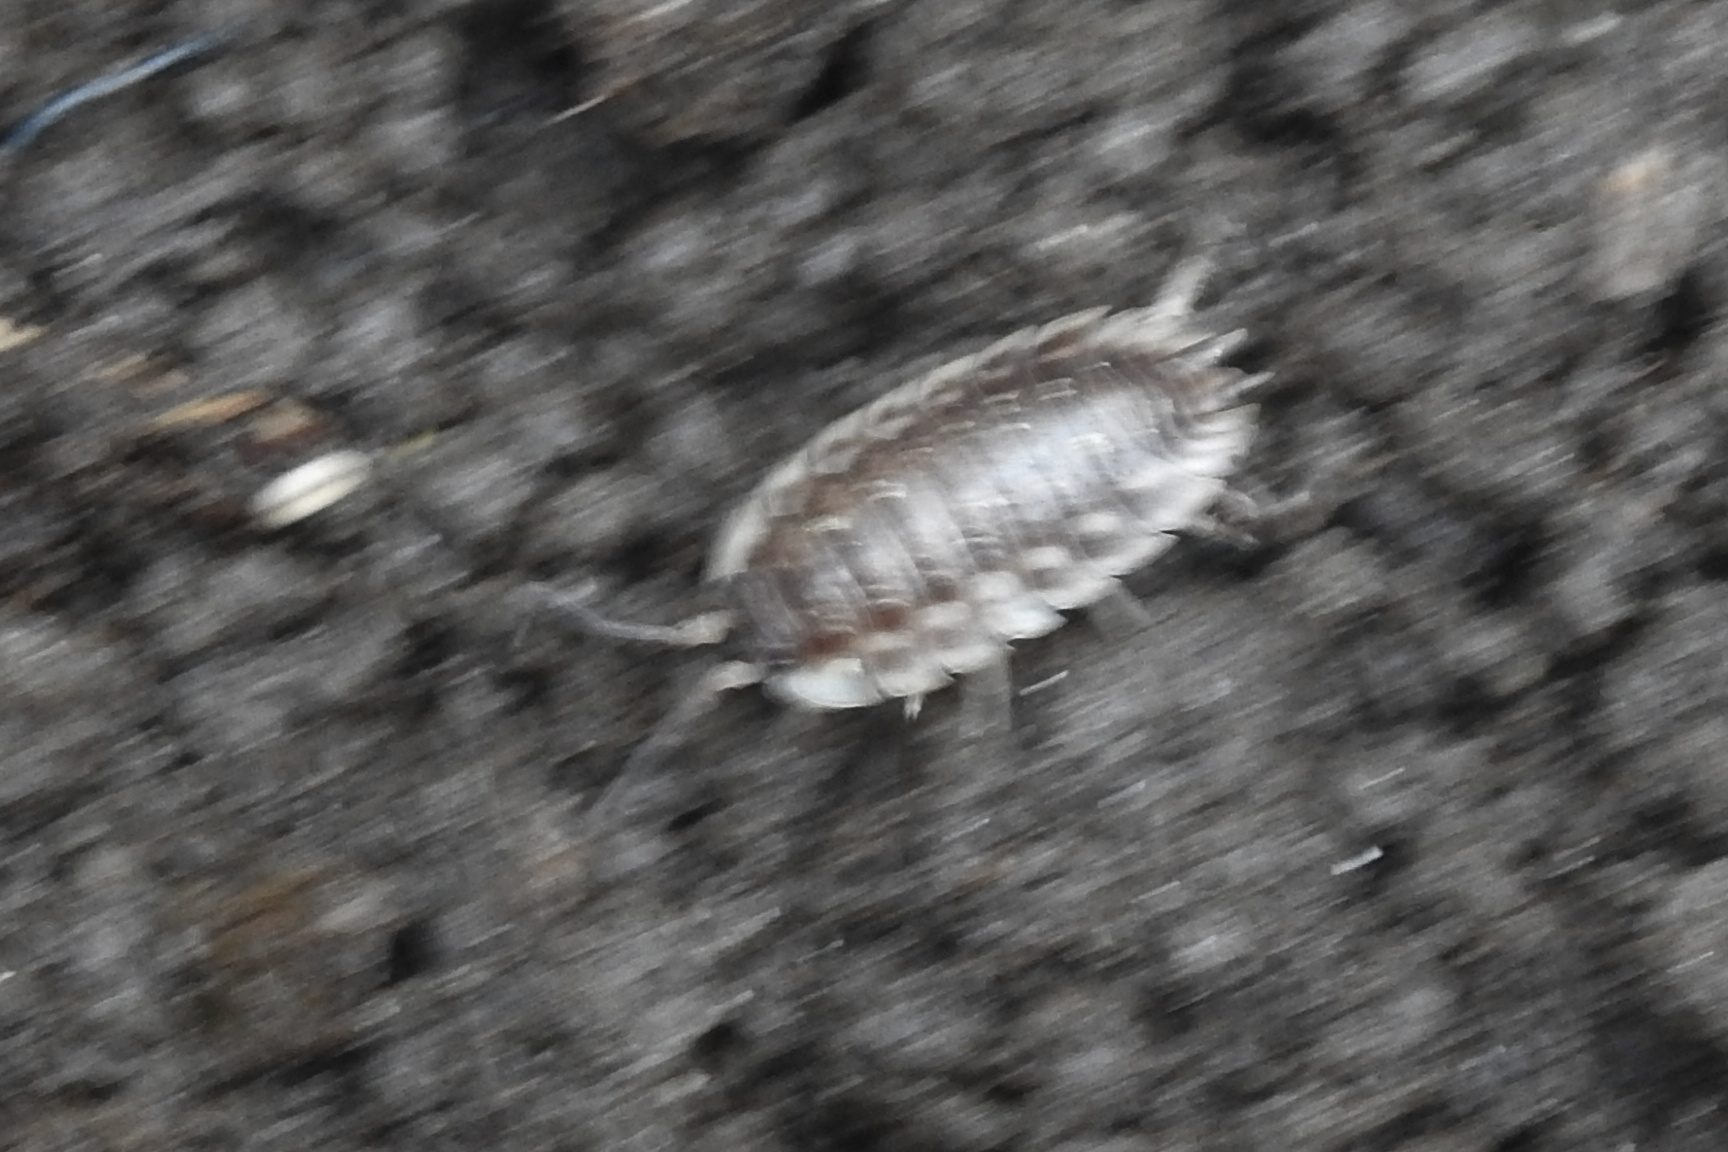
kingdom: Animalia
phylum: Arthropoda
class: Malacostraca
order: Isopoda
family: Oniscidae
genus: Oniscus
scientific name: Oniscus asellus
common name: Common shiny woodlouse
